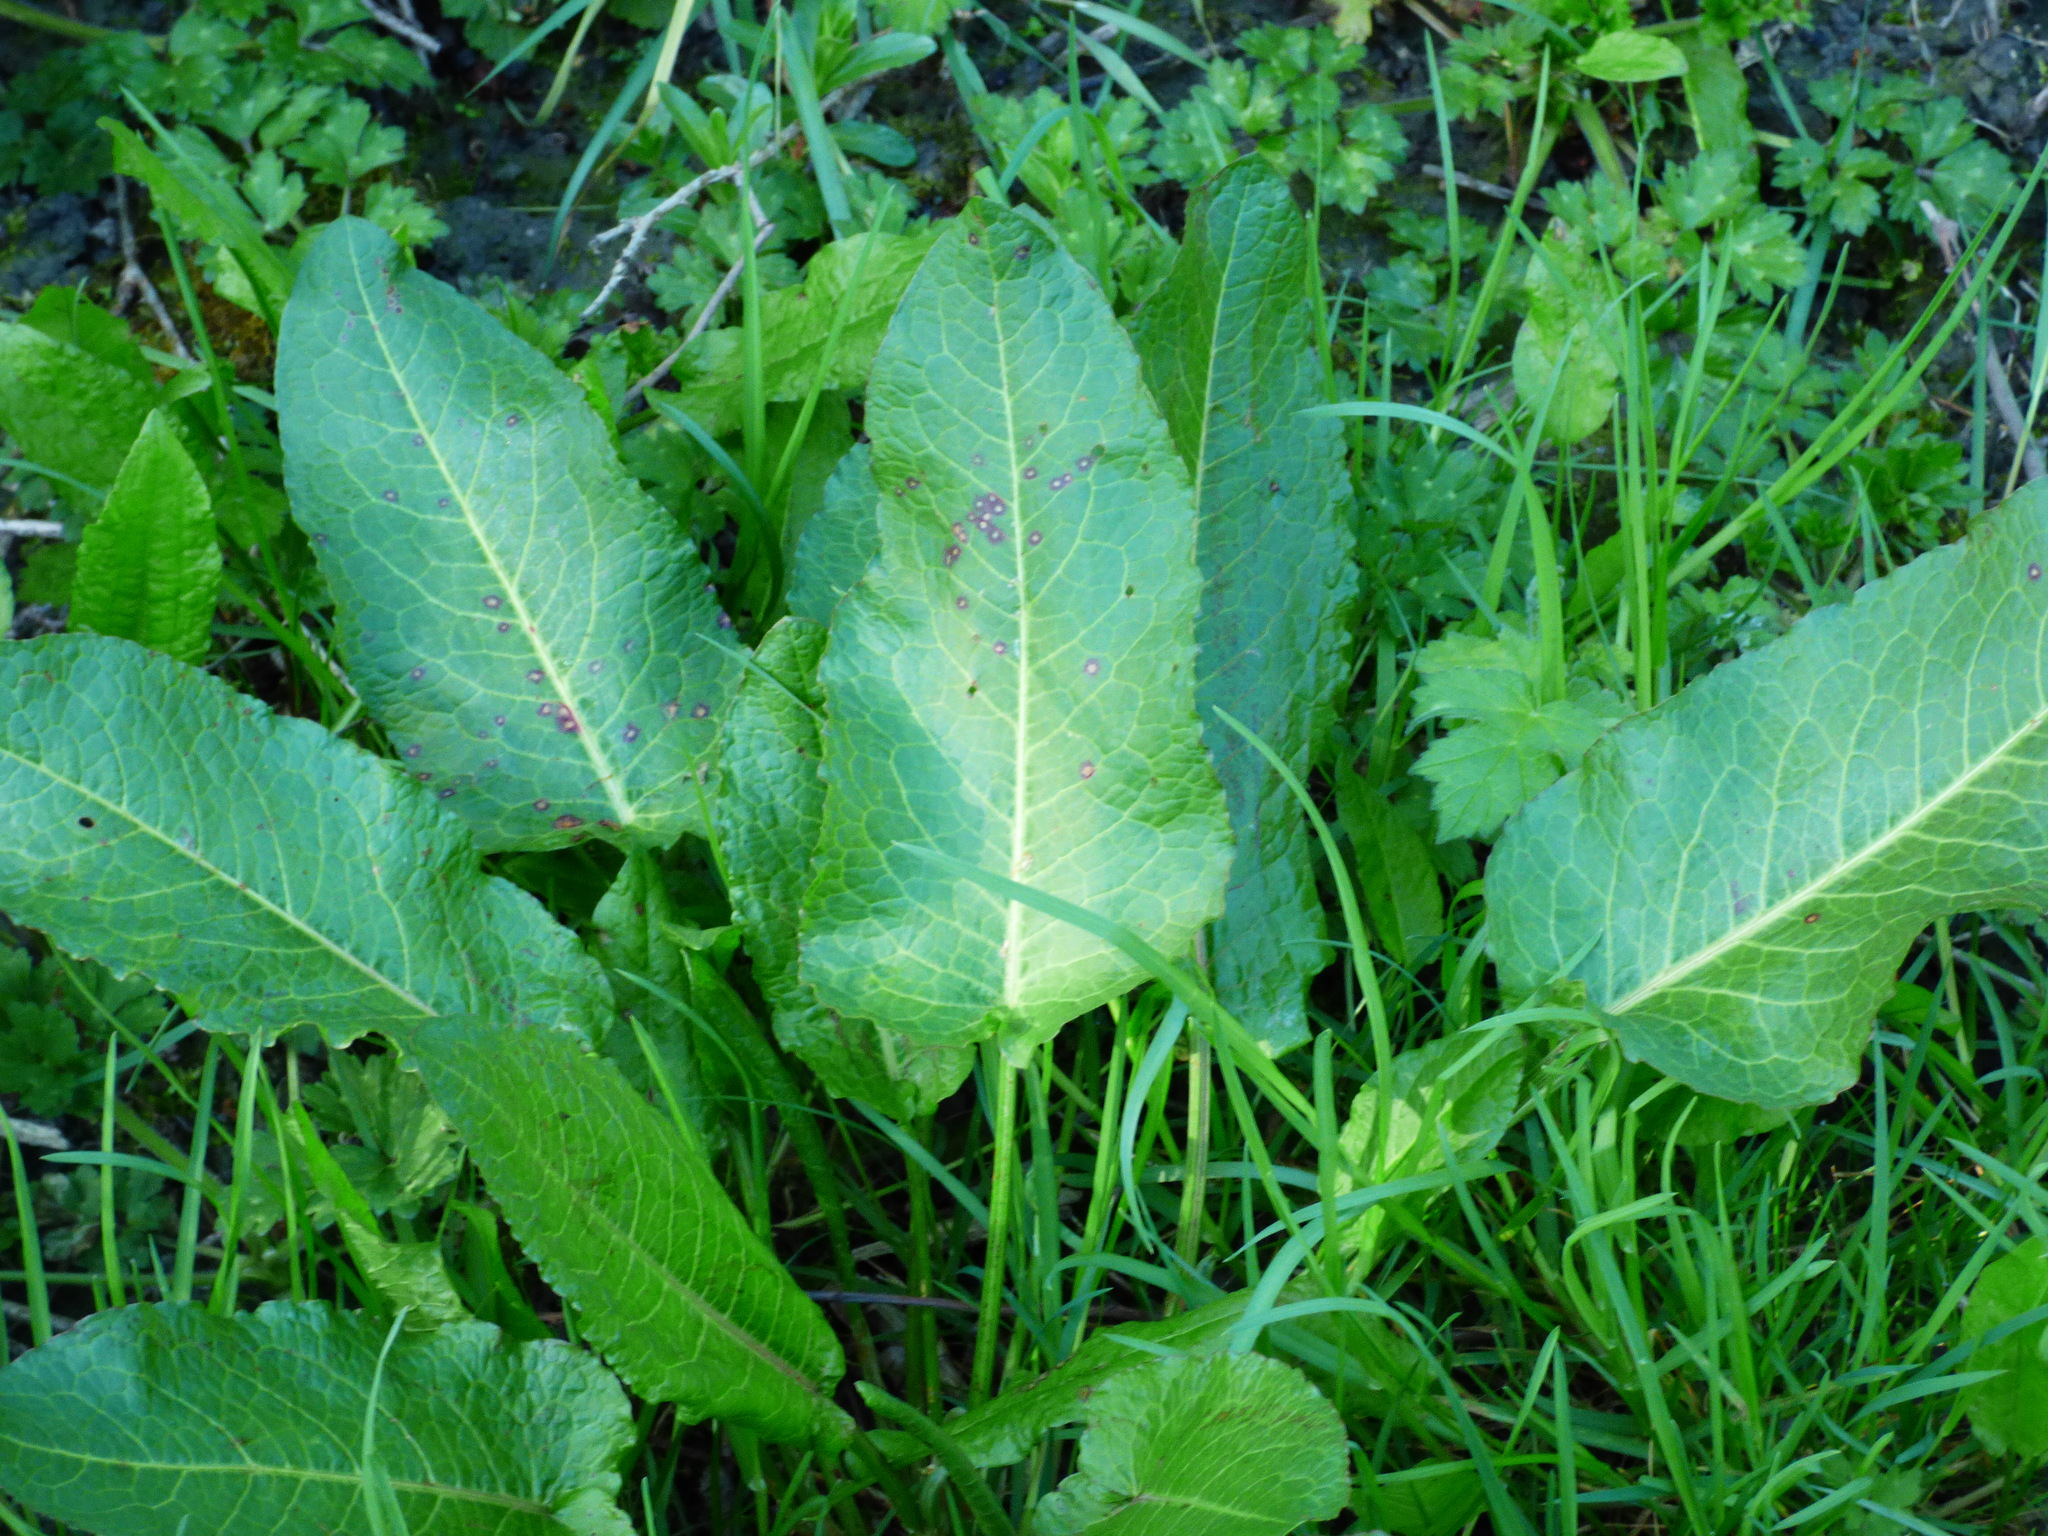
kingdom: Plantae
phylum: Tracheophyta
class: Magnoliopsida
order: Caryophyllales
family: Polygonaceae
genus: Rumex
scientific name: Rumex obtusifolius
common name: Bitter dock
